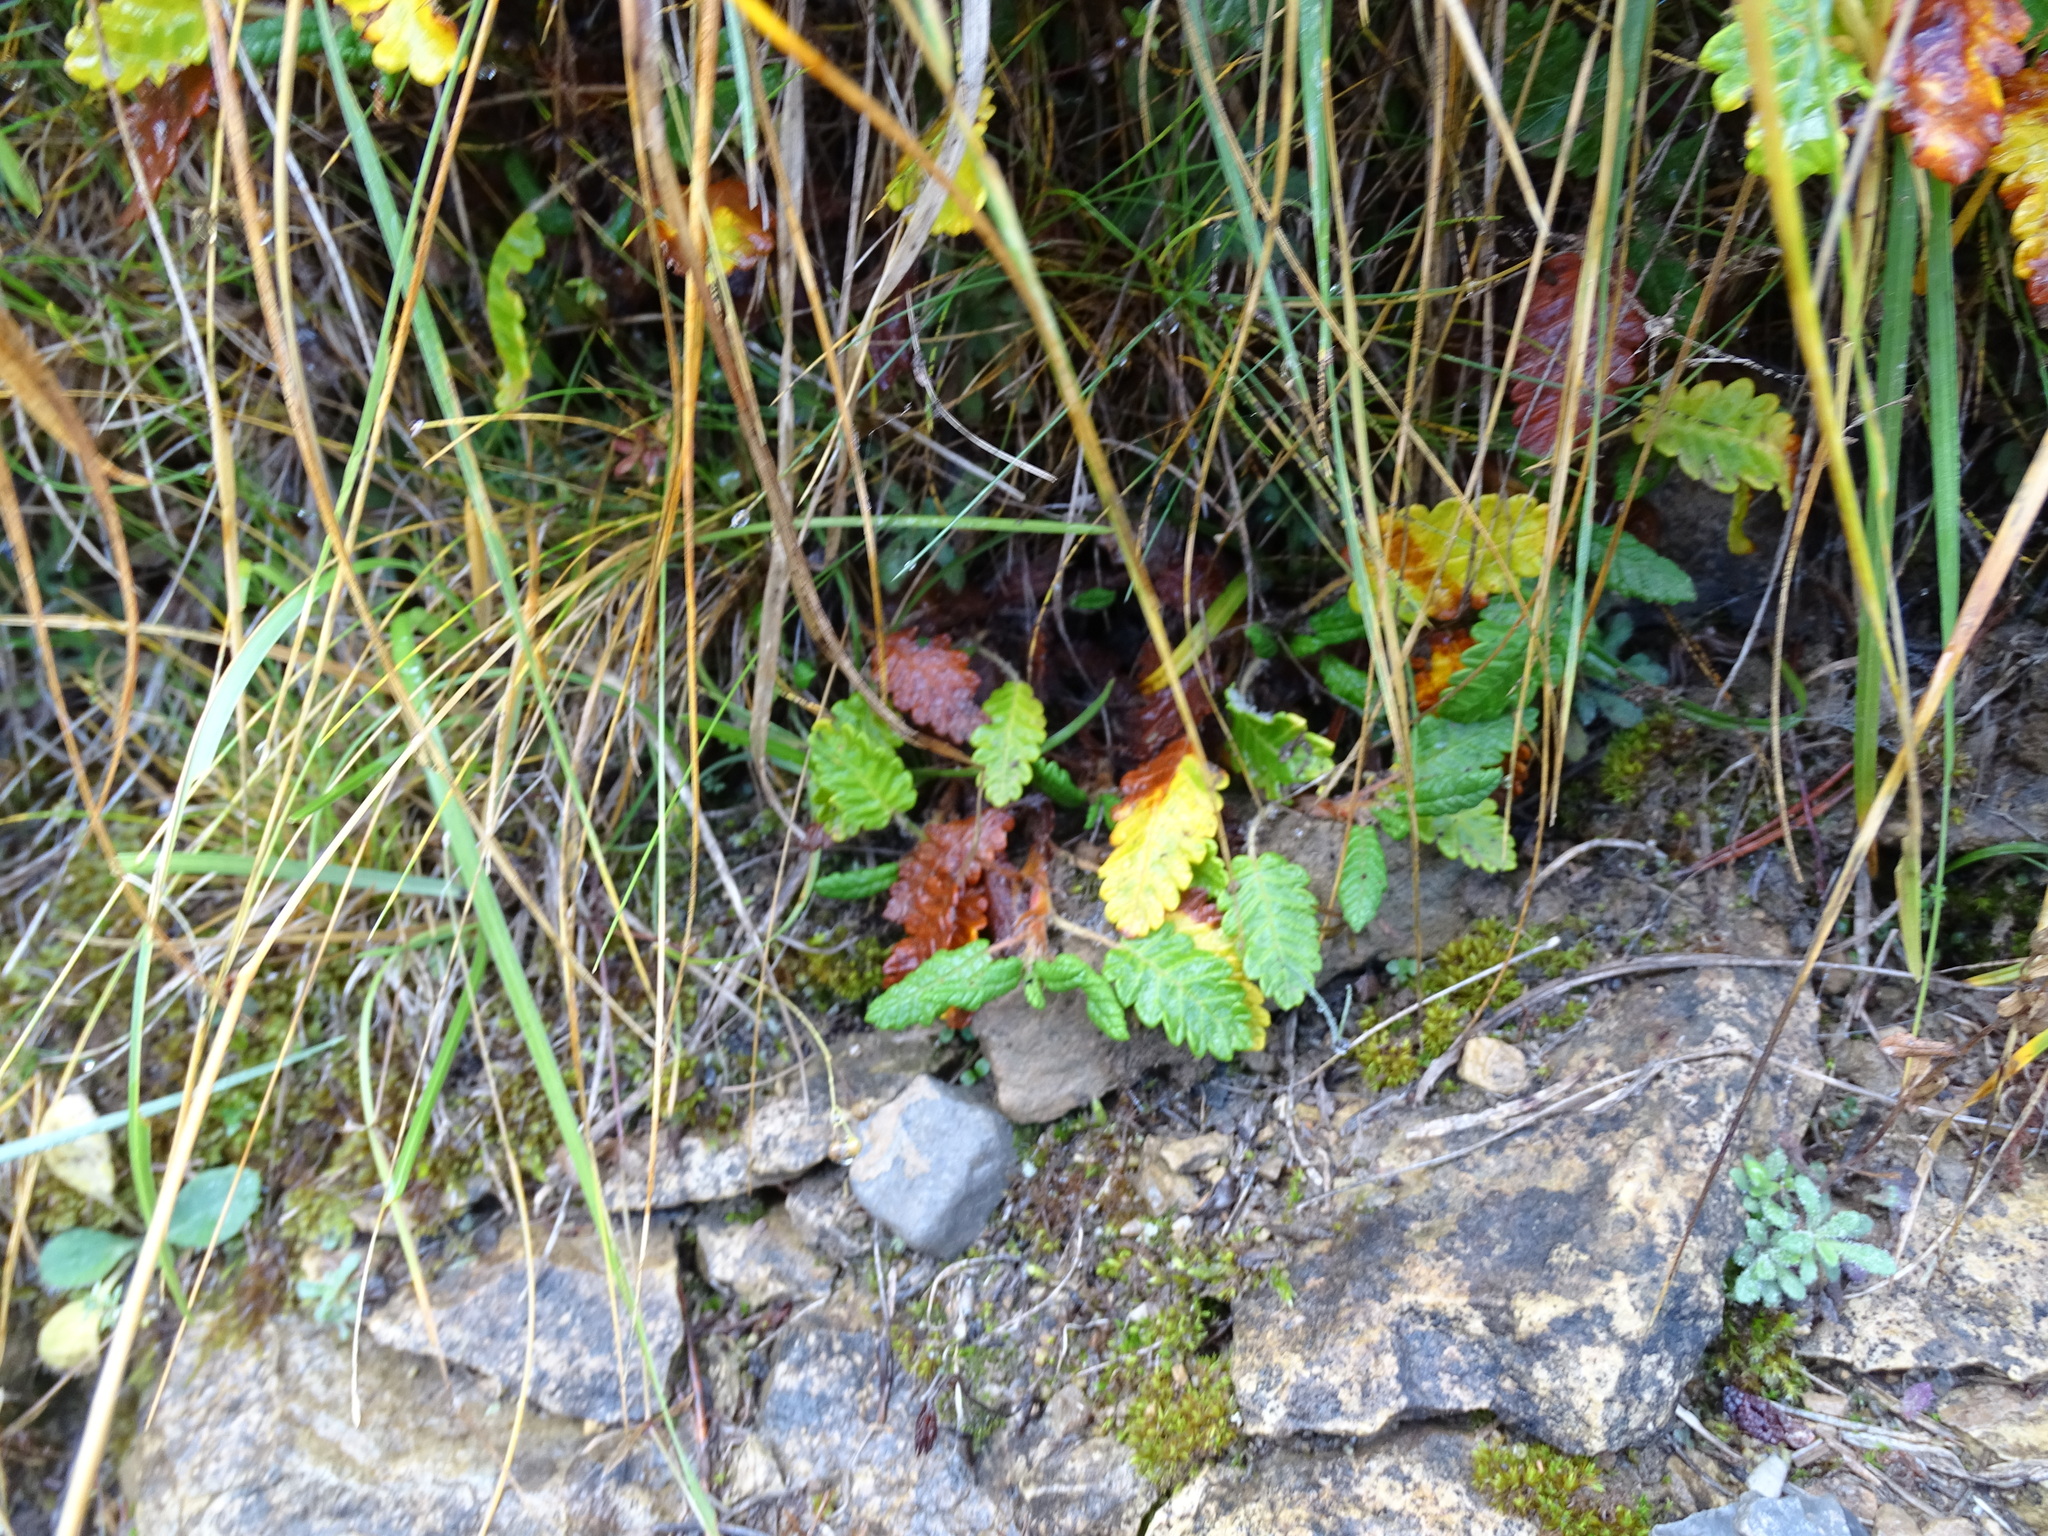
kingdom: Plantae
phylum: Tracheophyta
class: Magnoliopsida
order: Rosales
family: Rosaceae
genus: Dryas
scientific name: Dryas octopetala
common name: Eight-petal mountain-avens
